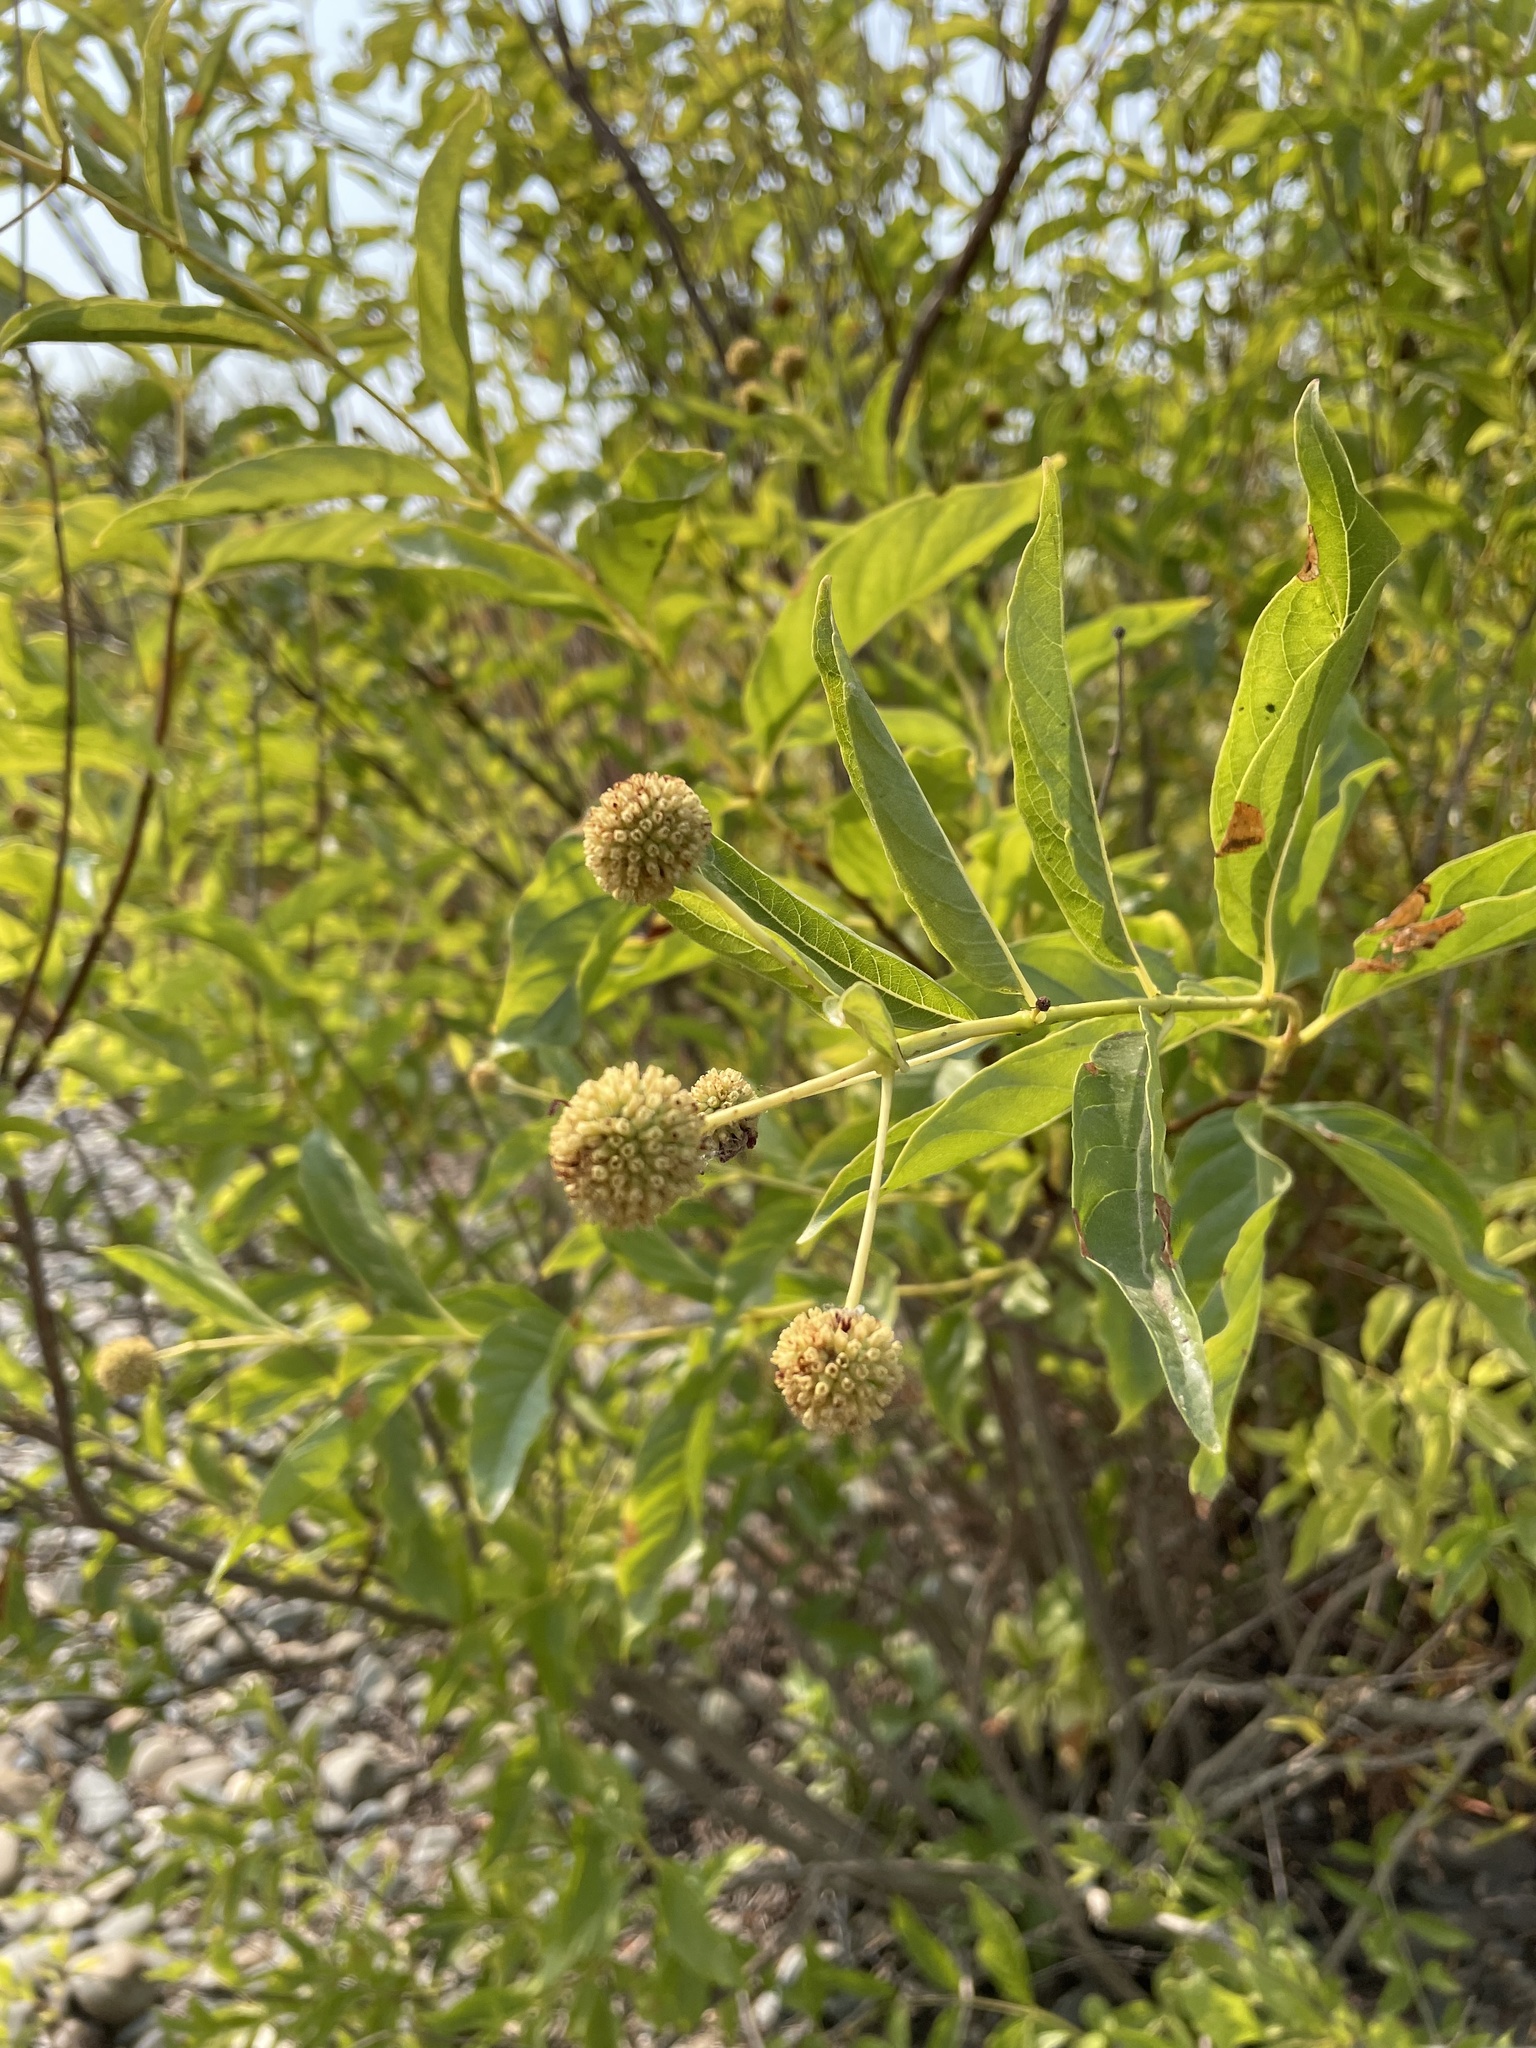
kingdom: Plantae
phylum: Tracheophyta
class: Magnoliopsida
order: Gentianales
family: Rubiaceae
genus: Cephalanthus
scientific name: Cephalanthus occidentalis
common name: Button-willow
